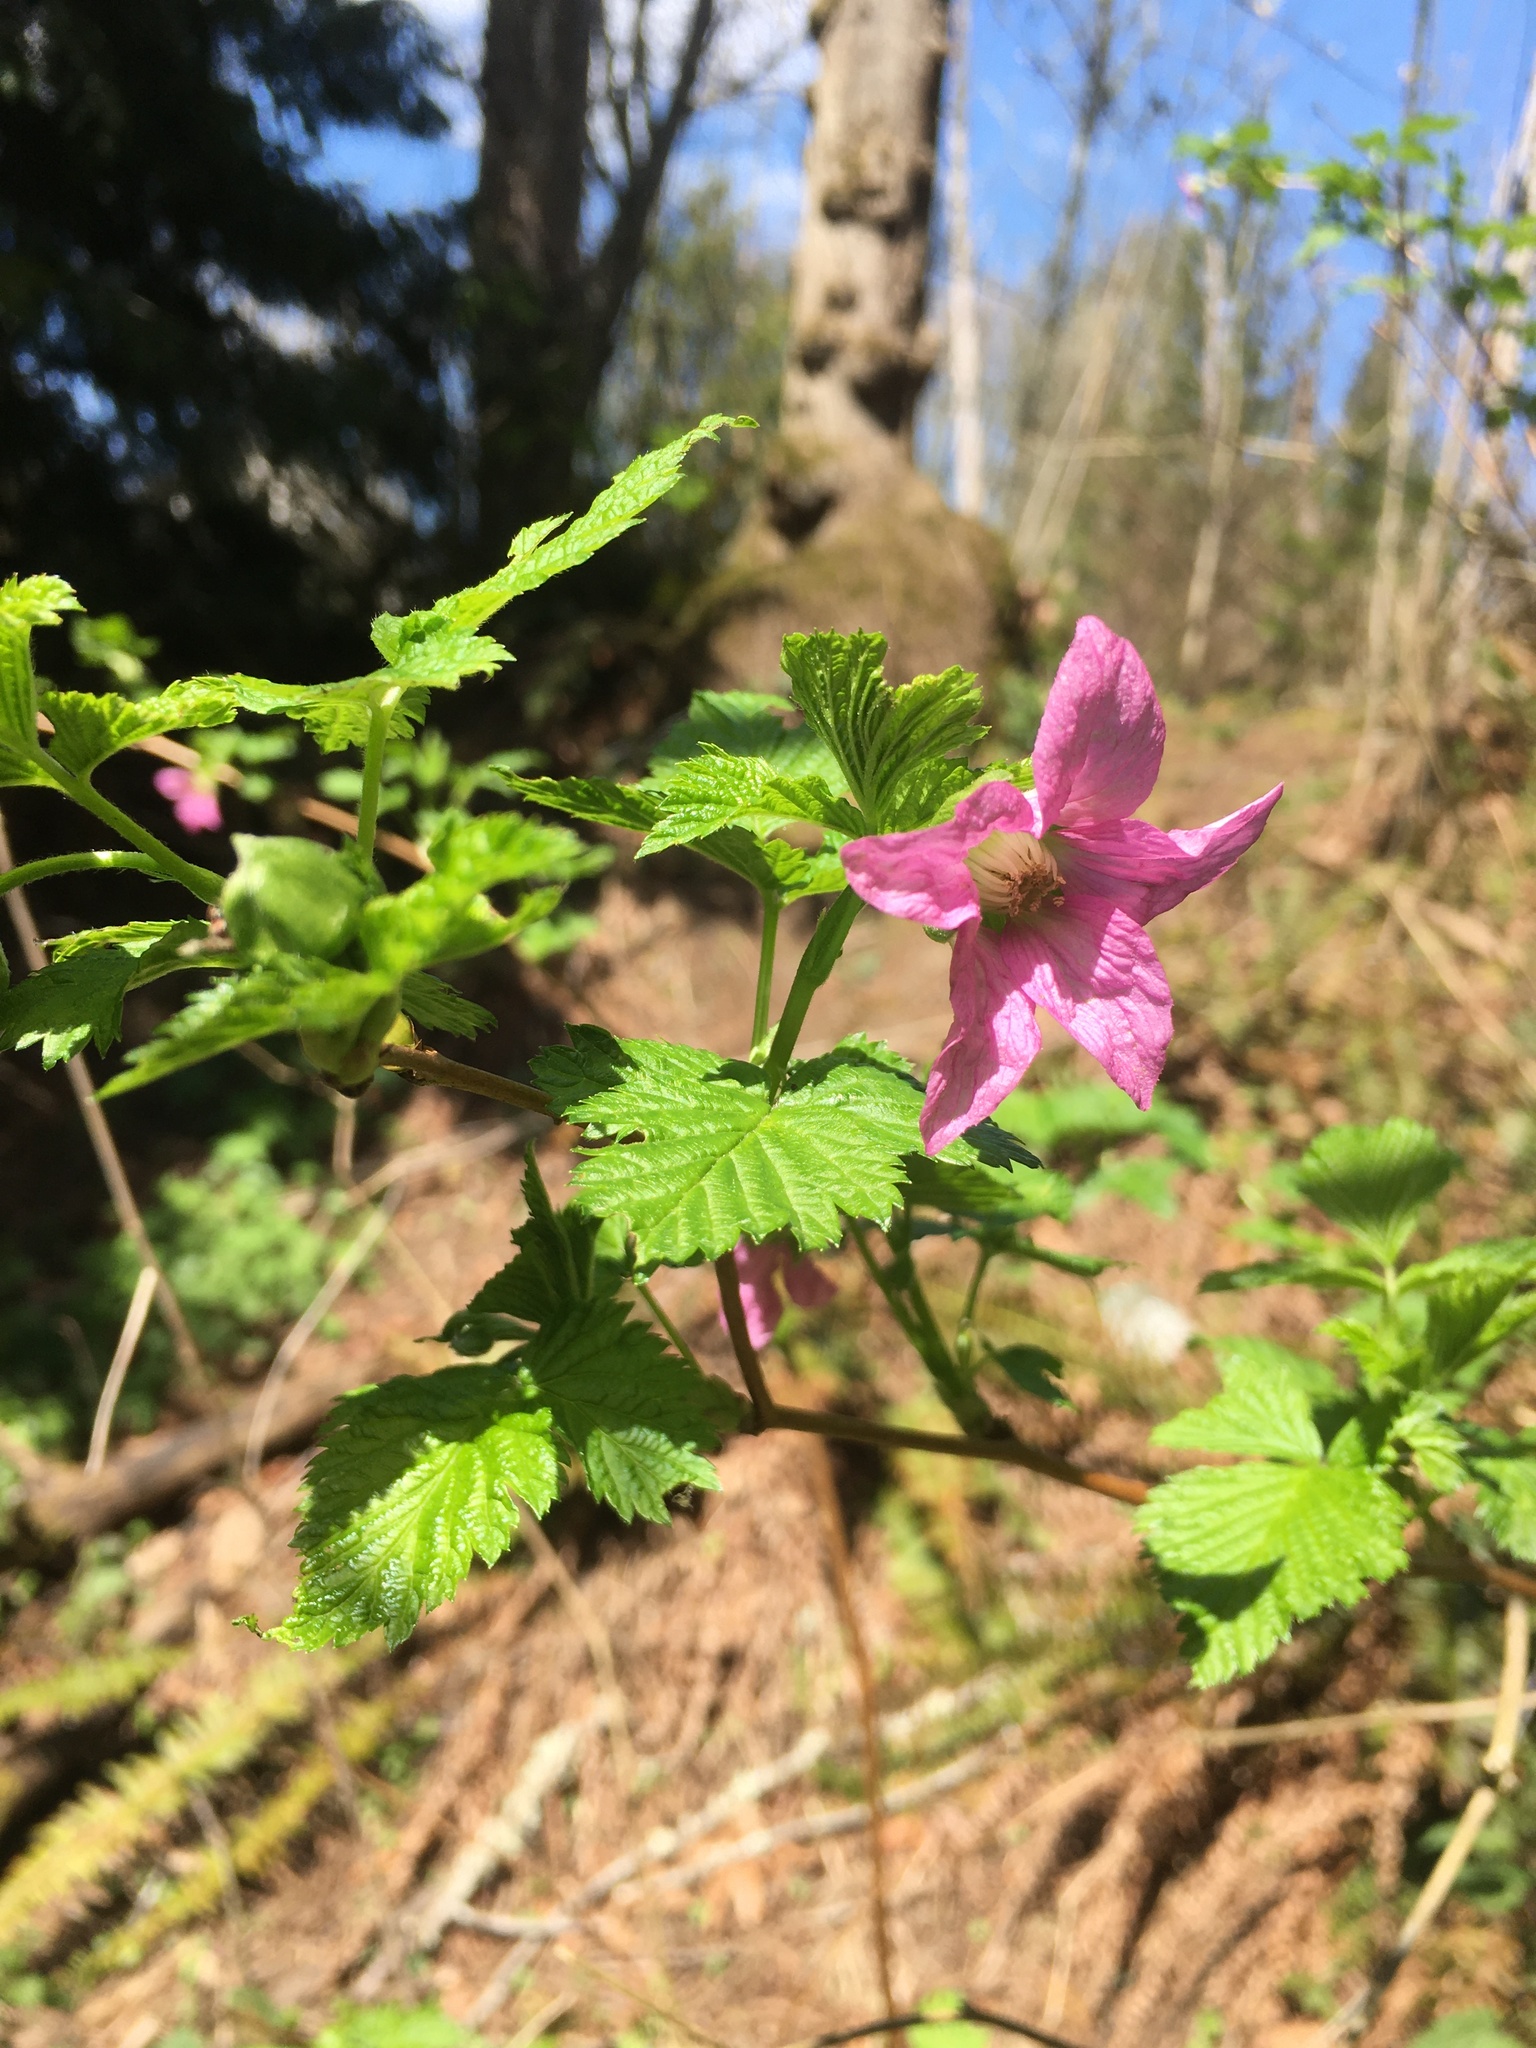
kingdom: Plantae
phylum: Tracheophyta
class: Magnoliopsida
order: Rosales
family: Rosaceae
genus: Rubus
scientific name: Rubus spectabilis
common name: Salmonberry
